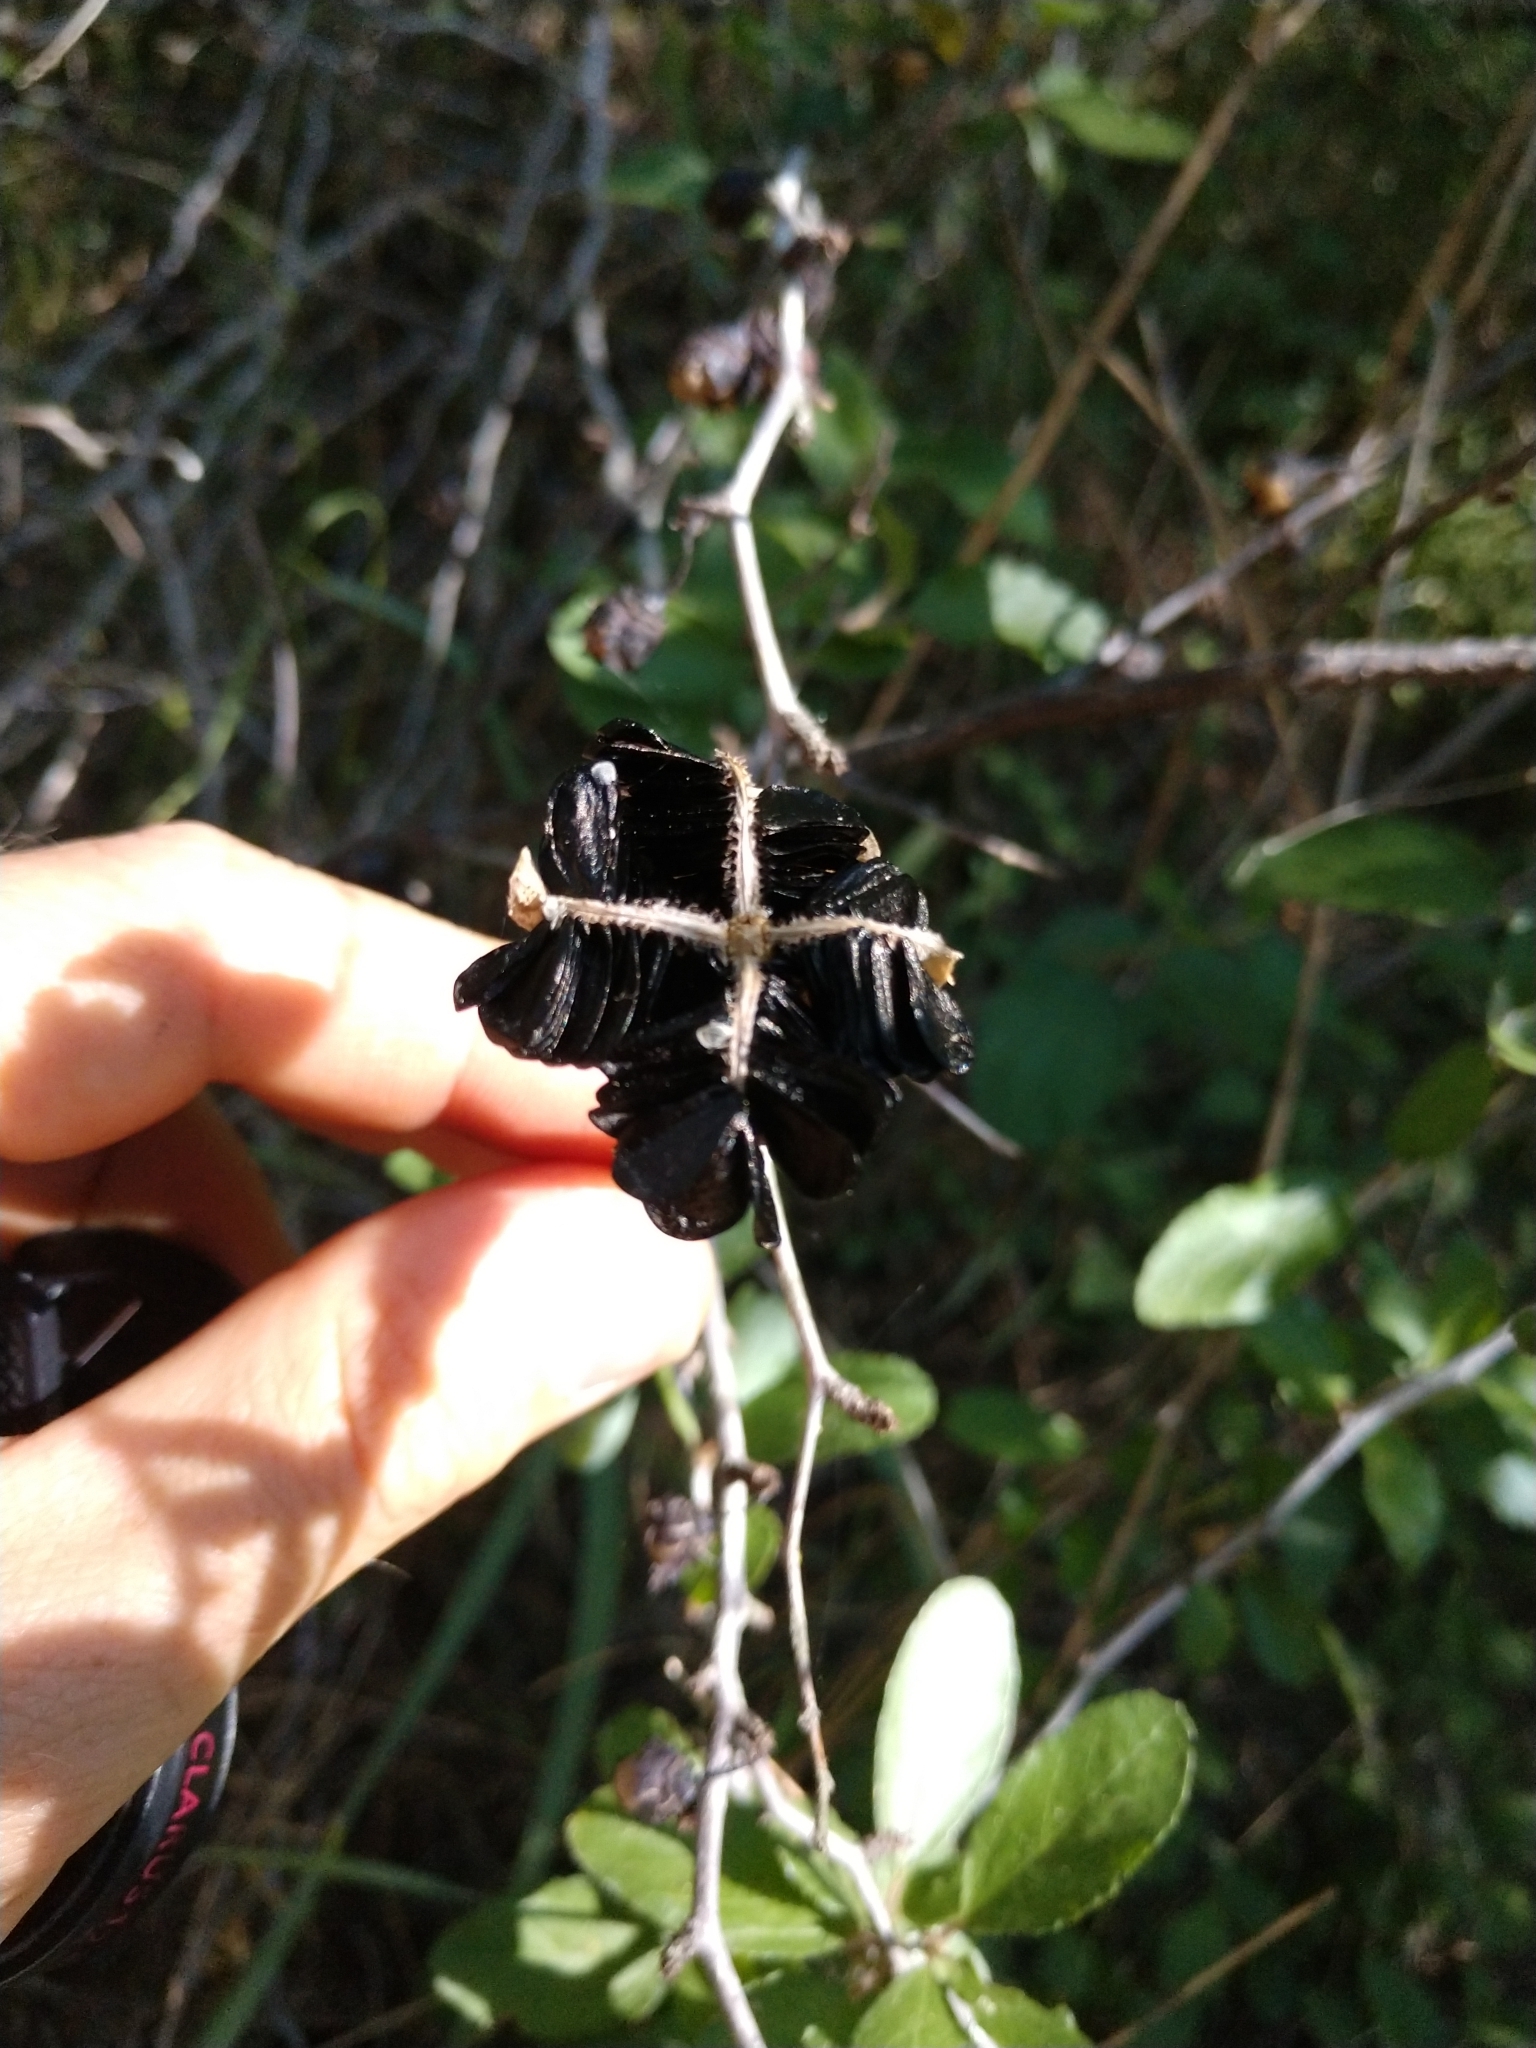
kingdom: Plantae
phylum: Tracheophyta
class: Liliopsida
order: Asparagales
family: Amaryllidaceae
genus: Zephyranthes
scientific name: Zephyranthes chlorosolen
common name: Evening rain-lily
